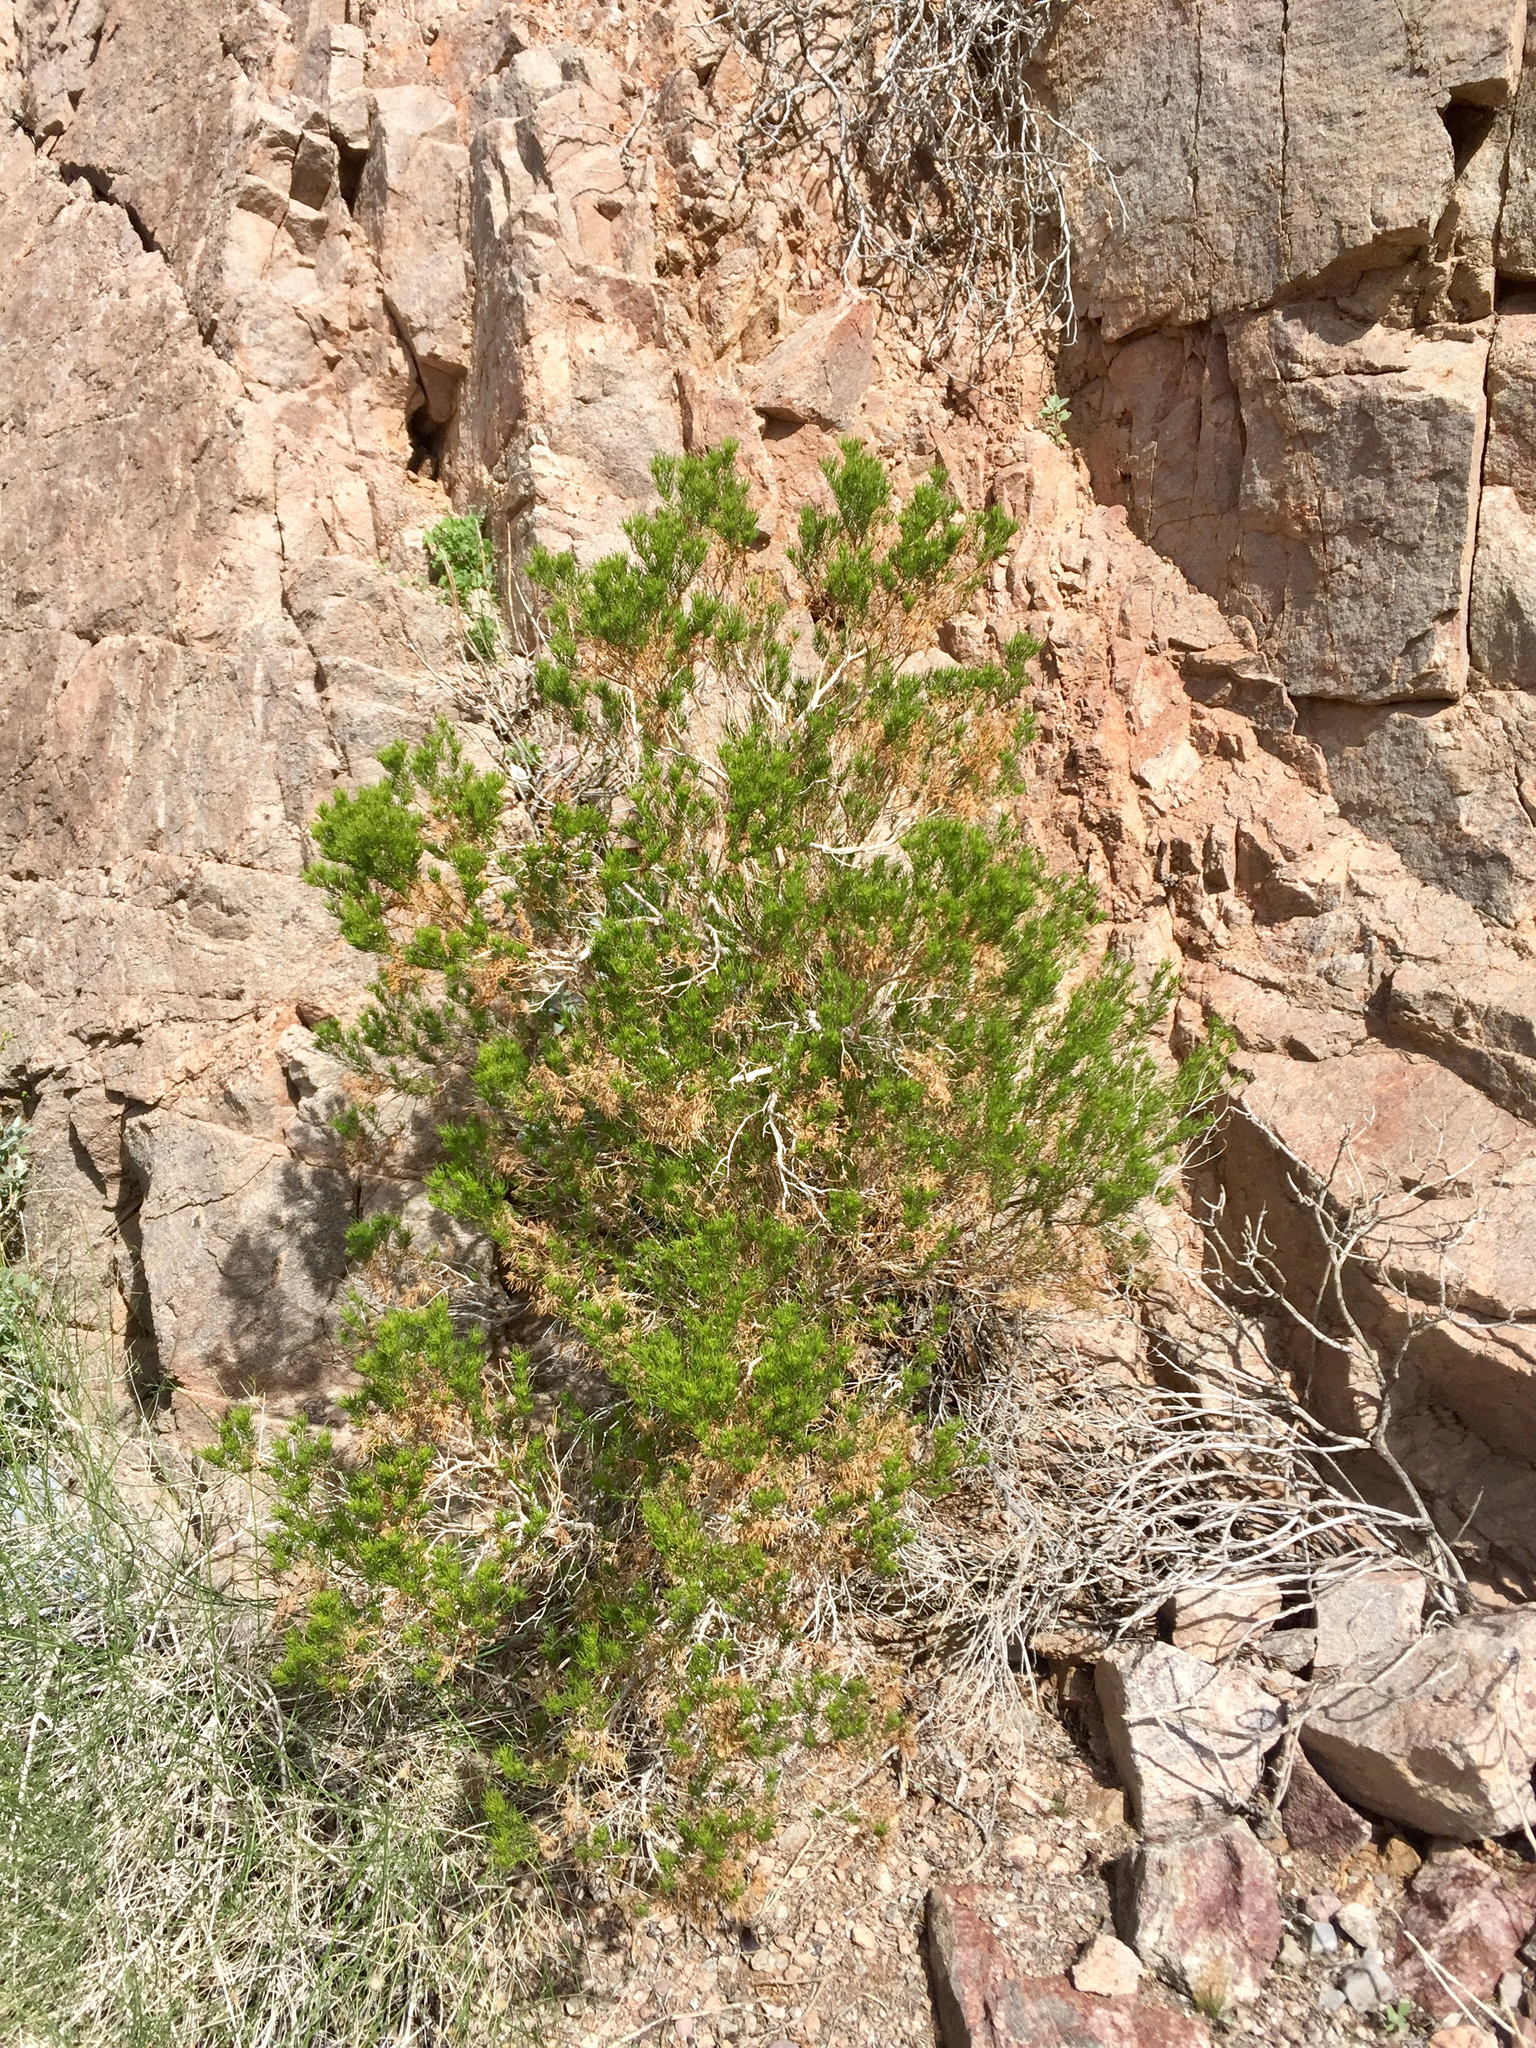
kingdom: Plantae
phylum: Tracheophyta
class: Magnoliopsida
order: Asterales
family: Asteraceae
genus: Peucephyllum
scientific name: Peucephyllum schottii
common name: Pygmy-cedar
